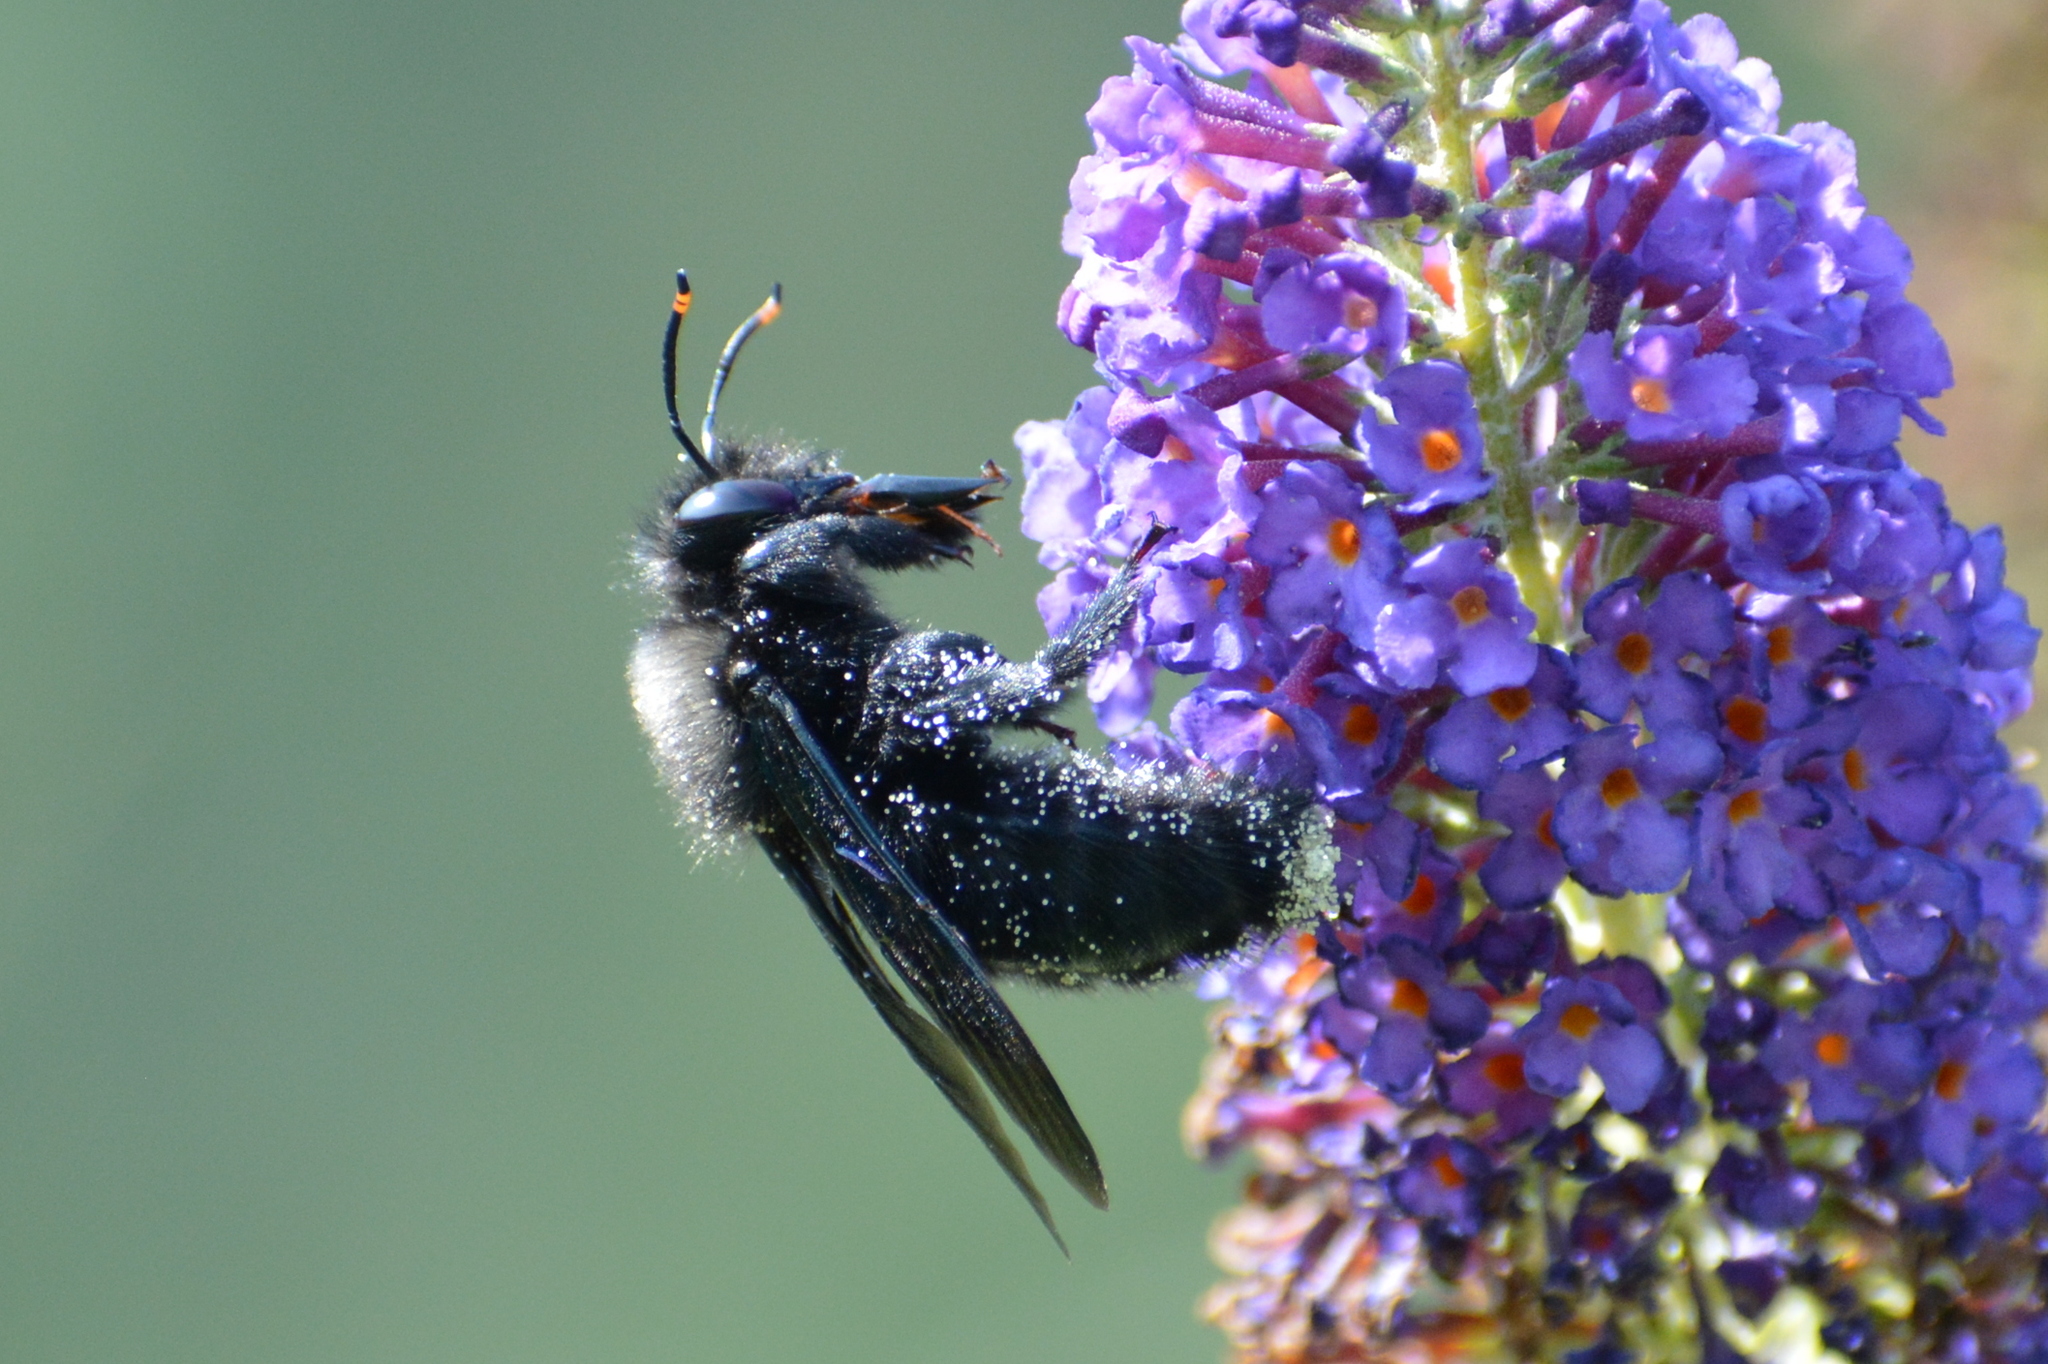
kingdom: Animalia
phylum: Arthropoda
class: Insecta
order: Hymenoptera
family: Apidae
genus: Xylocopa
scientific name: Xylocopa violacea
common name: Violet carpenter bee
